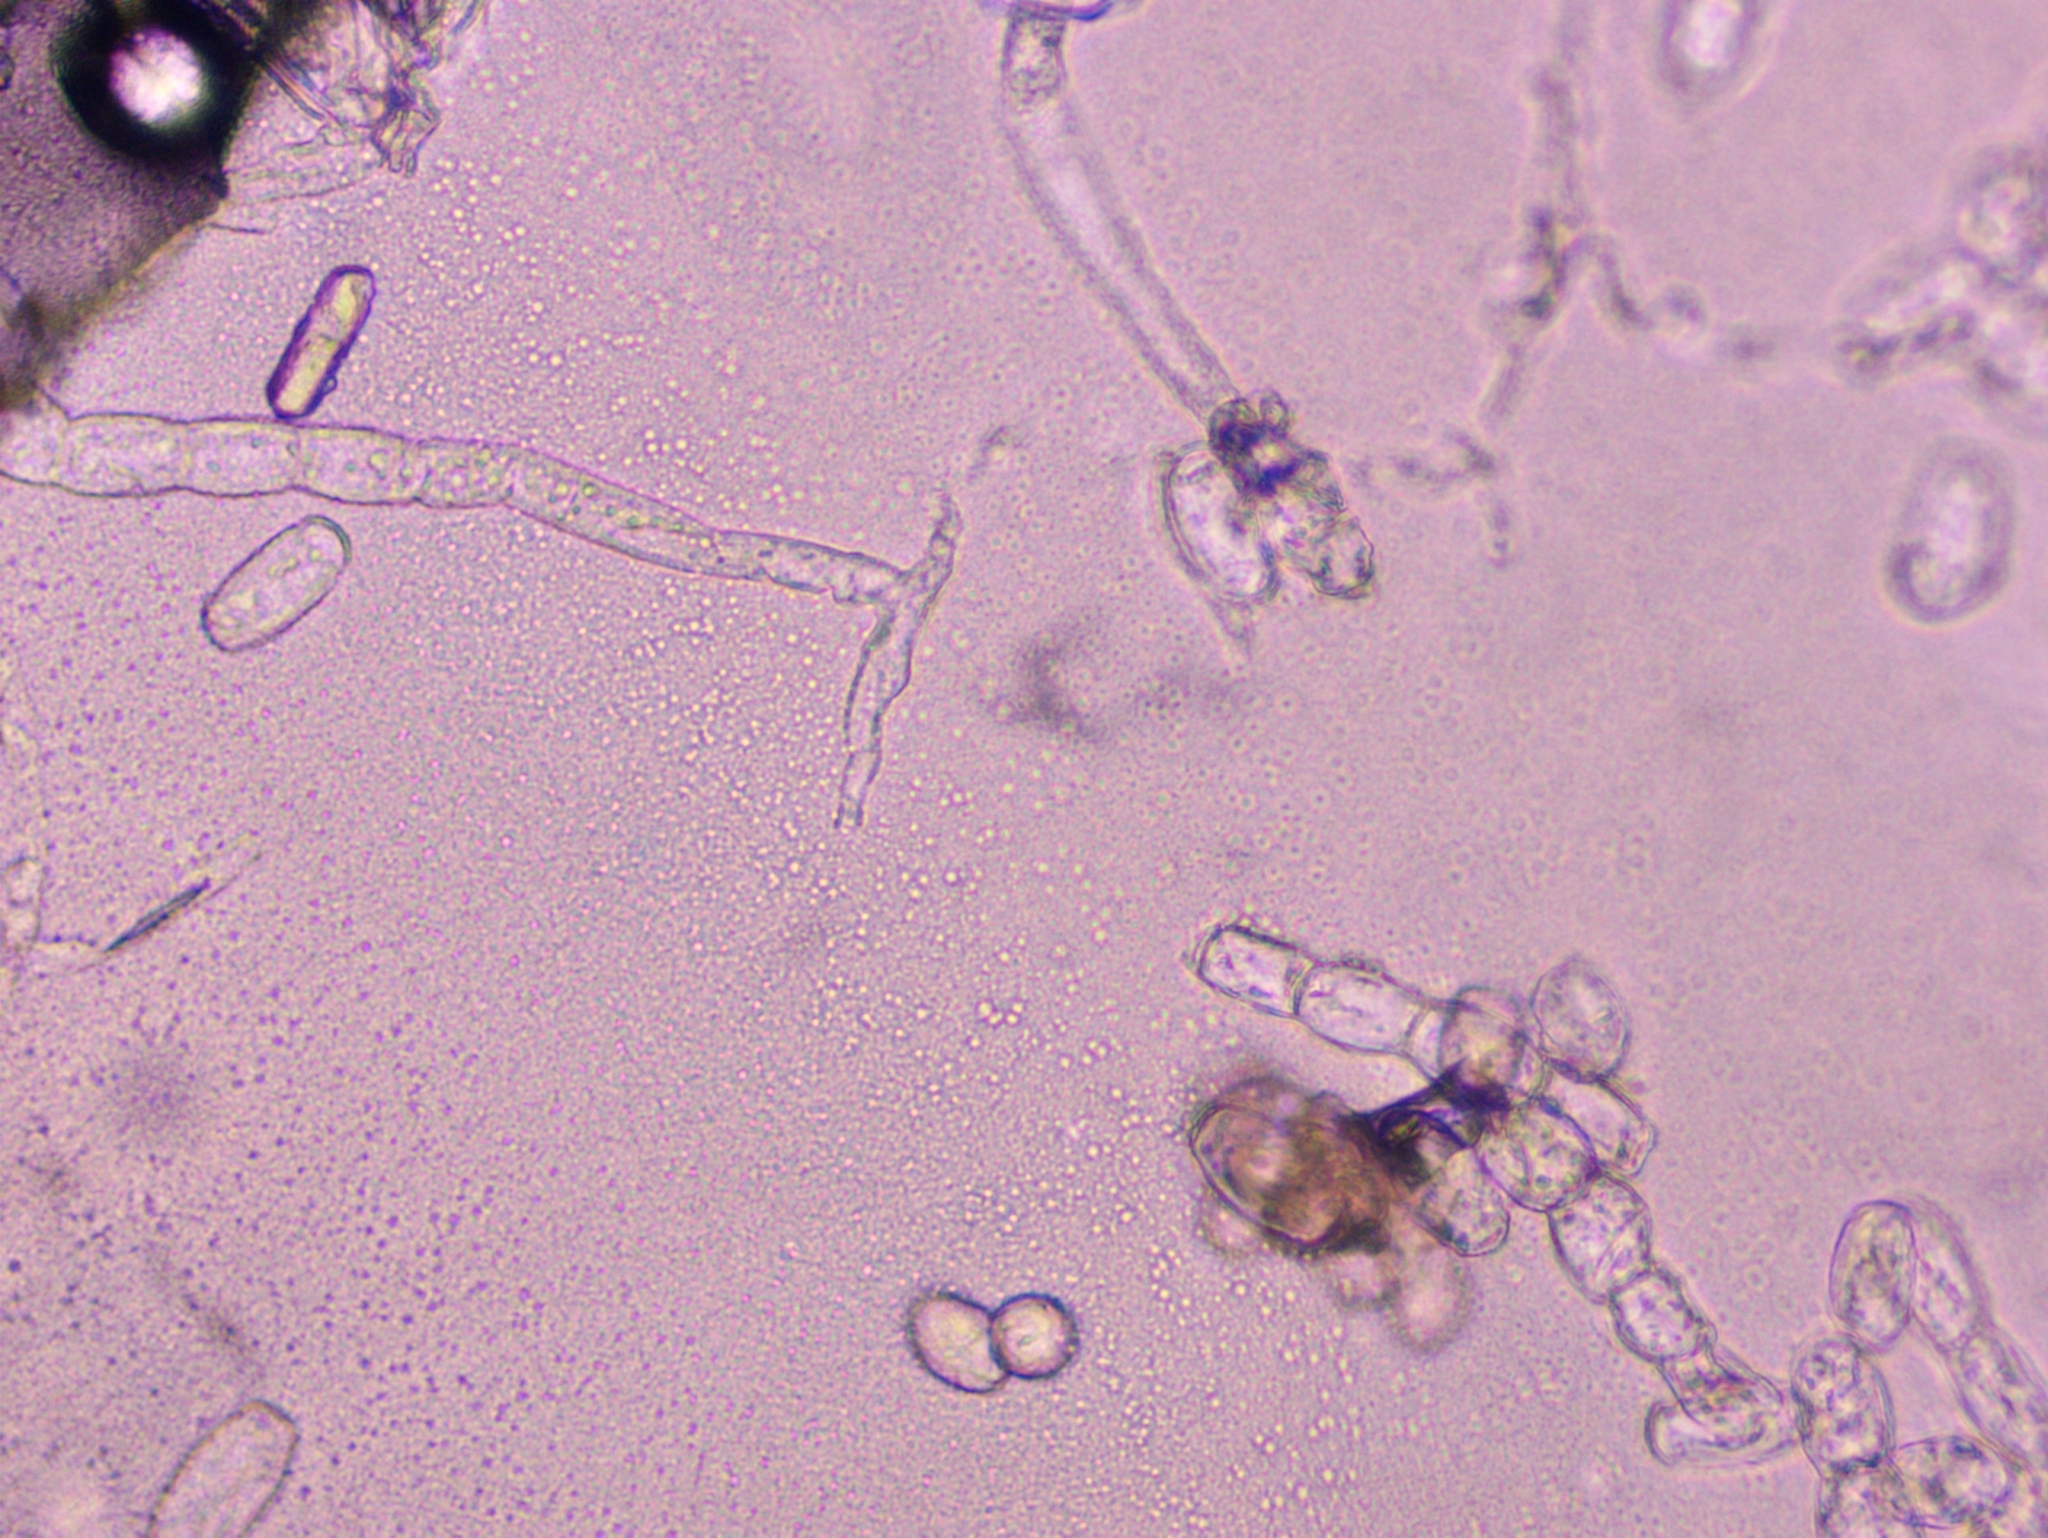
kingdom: Fungi
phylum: Ascomycota
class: Leotiomycetes
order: Helotiales
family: Erysiphaceae
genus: Podosphaera
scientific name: Podosphaera pruni-avium
